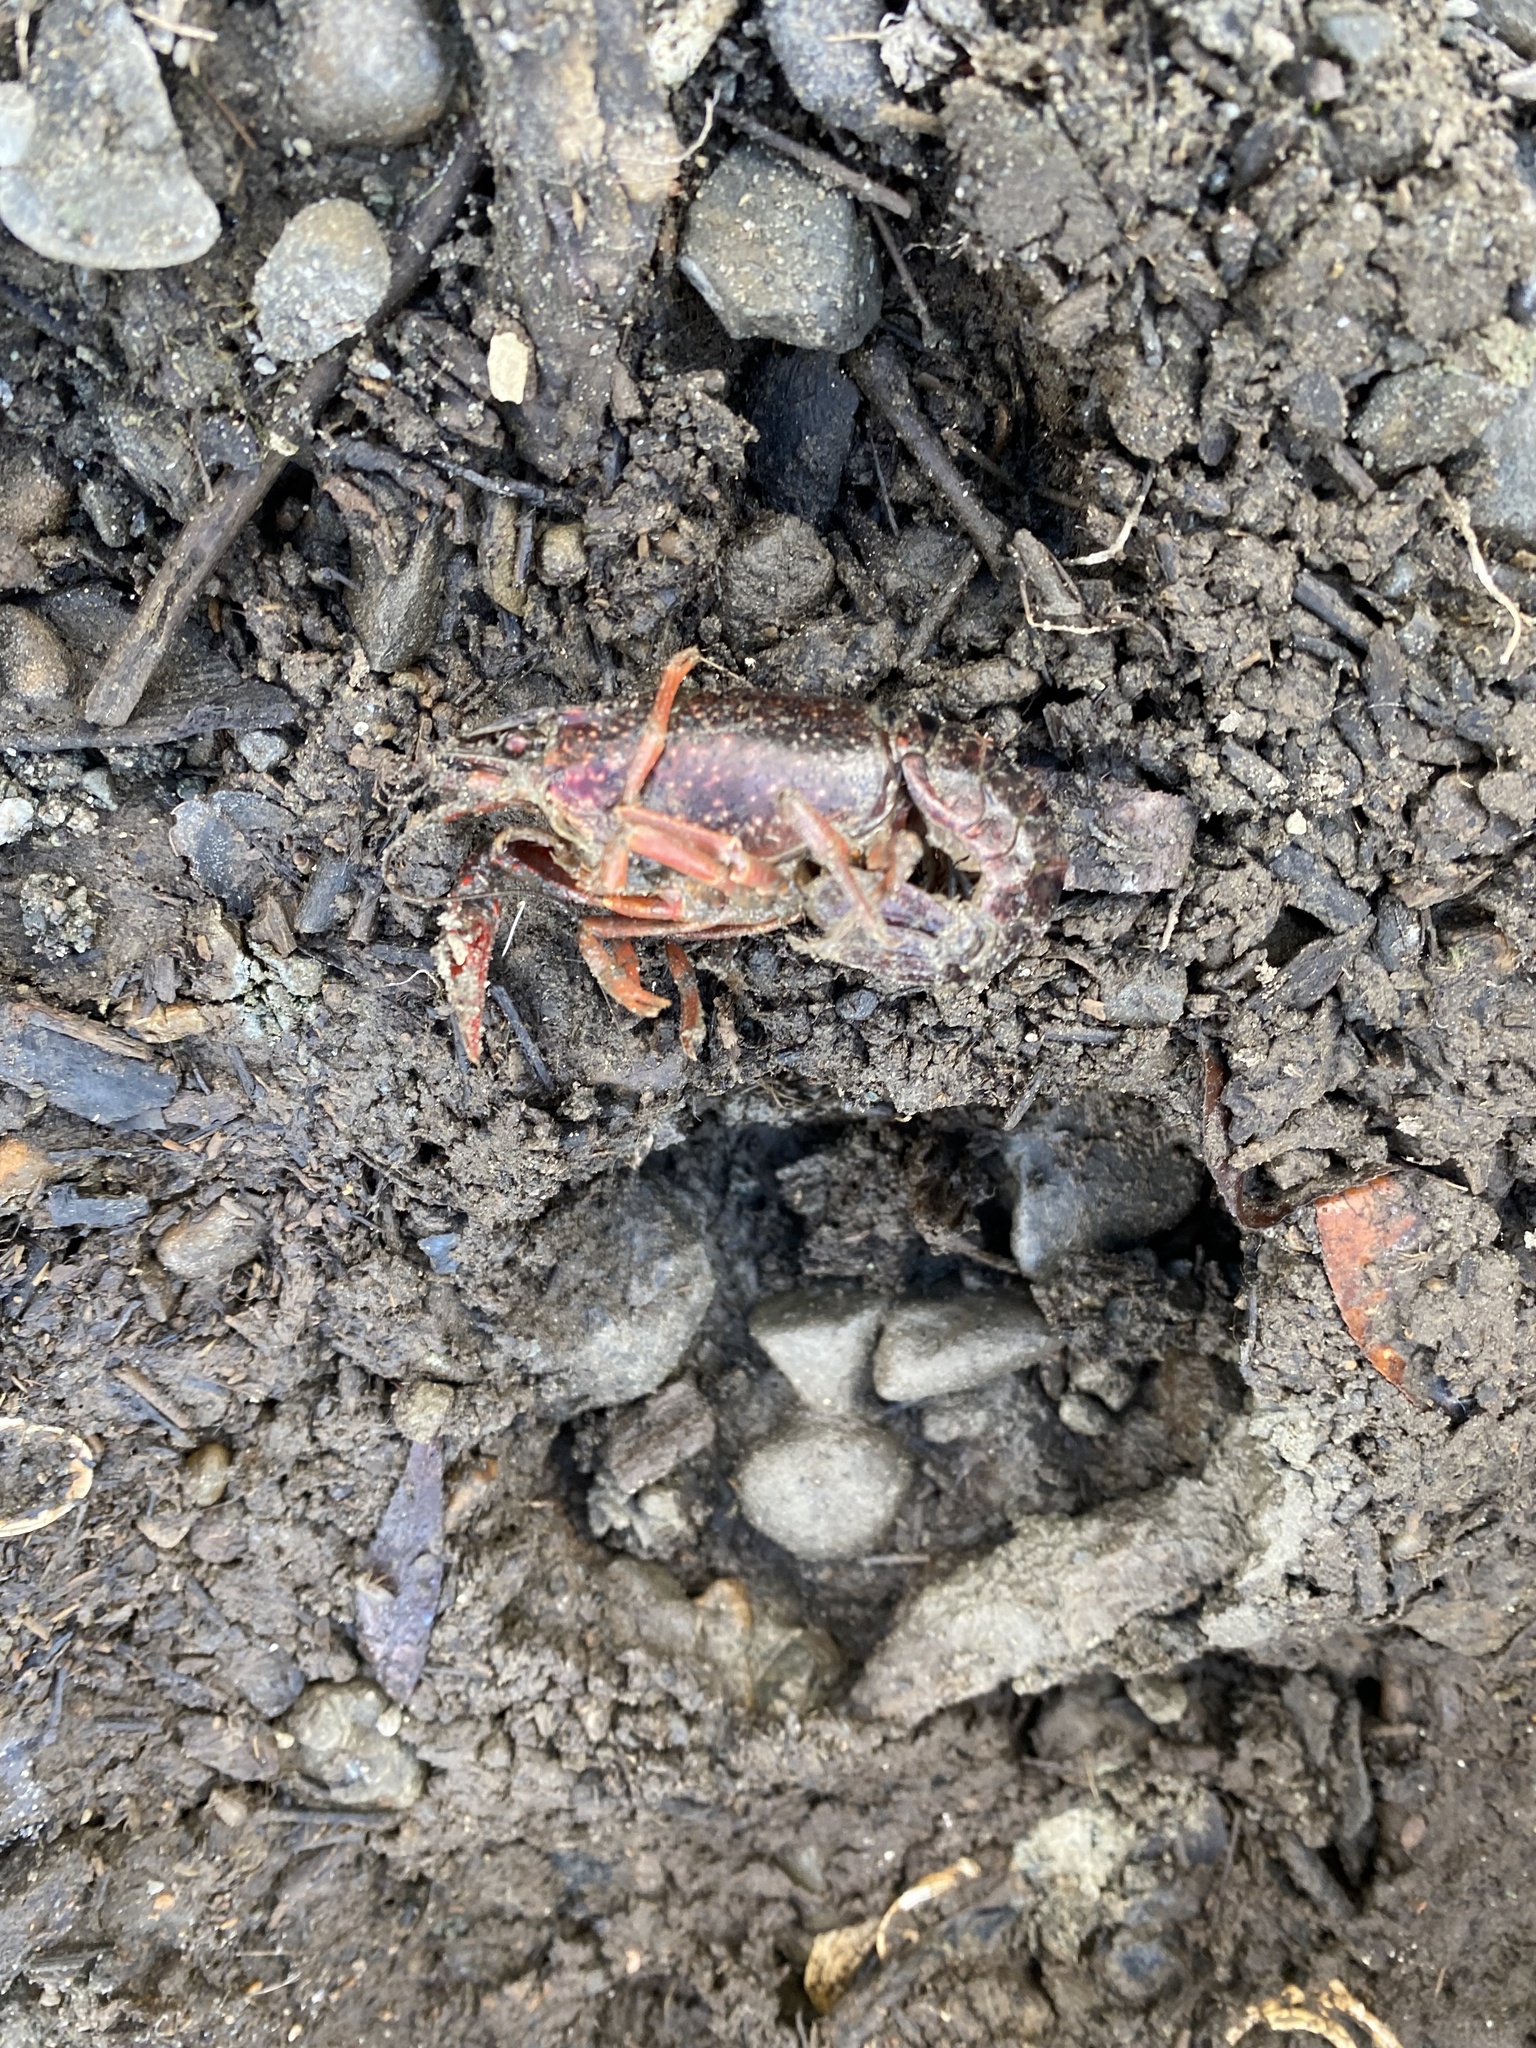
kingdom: Animalia
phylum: Arthropoda
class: Malacostraca
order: Decapoda
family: Cambaridae
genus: Procambarus
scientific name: Procambarus clarkii
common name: Red swamp crayfish
